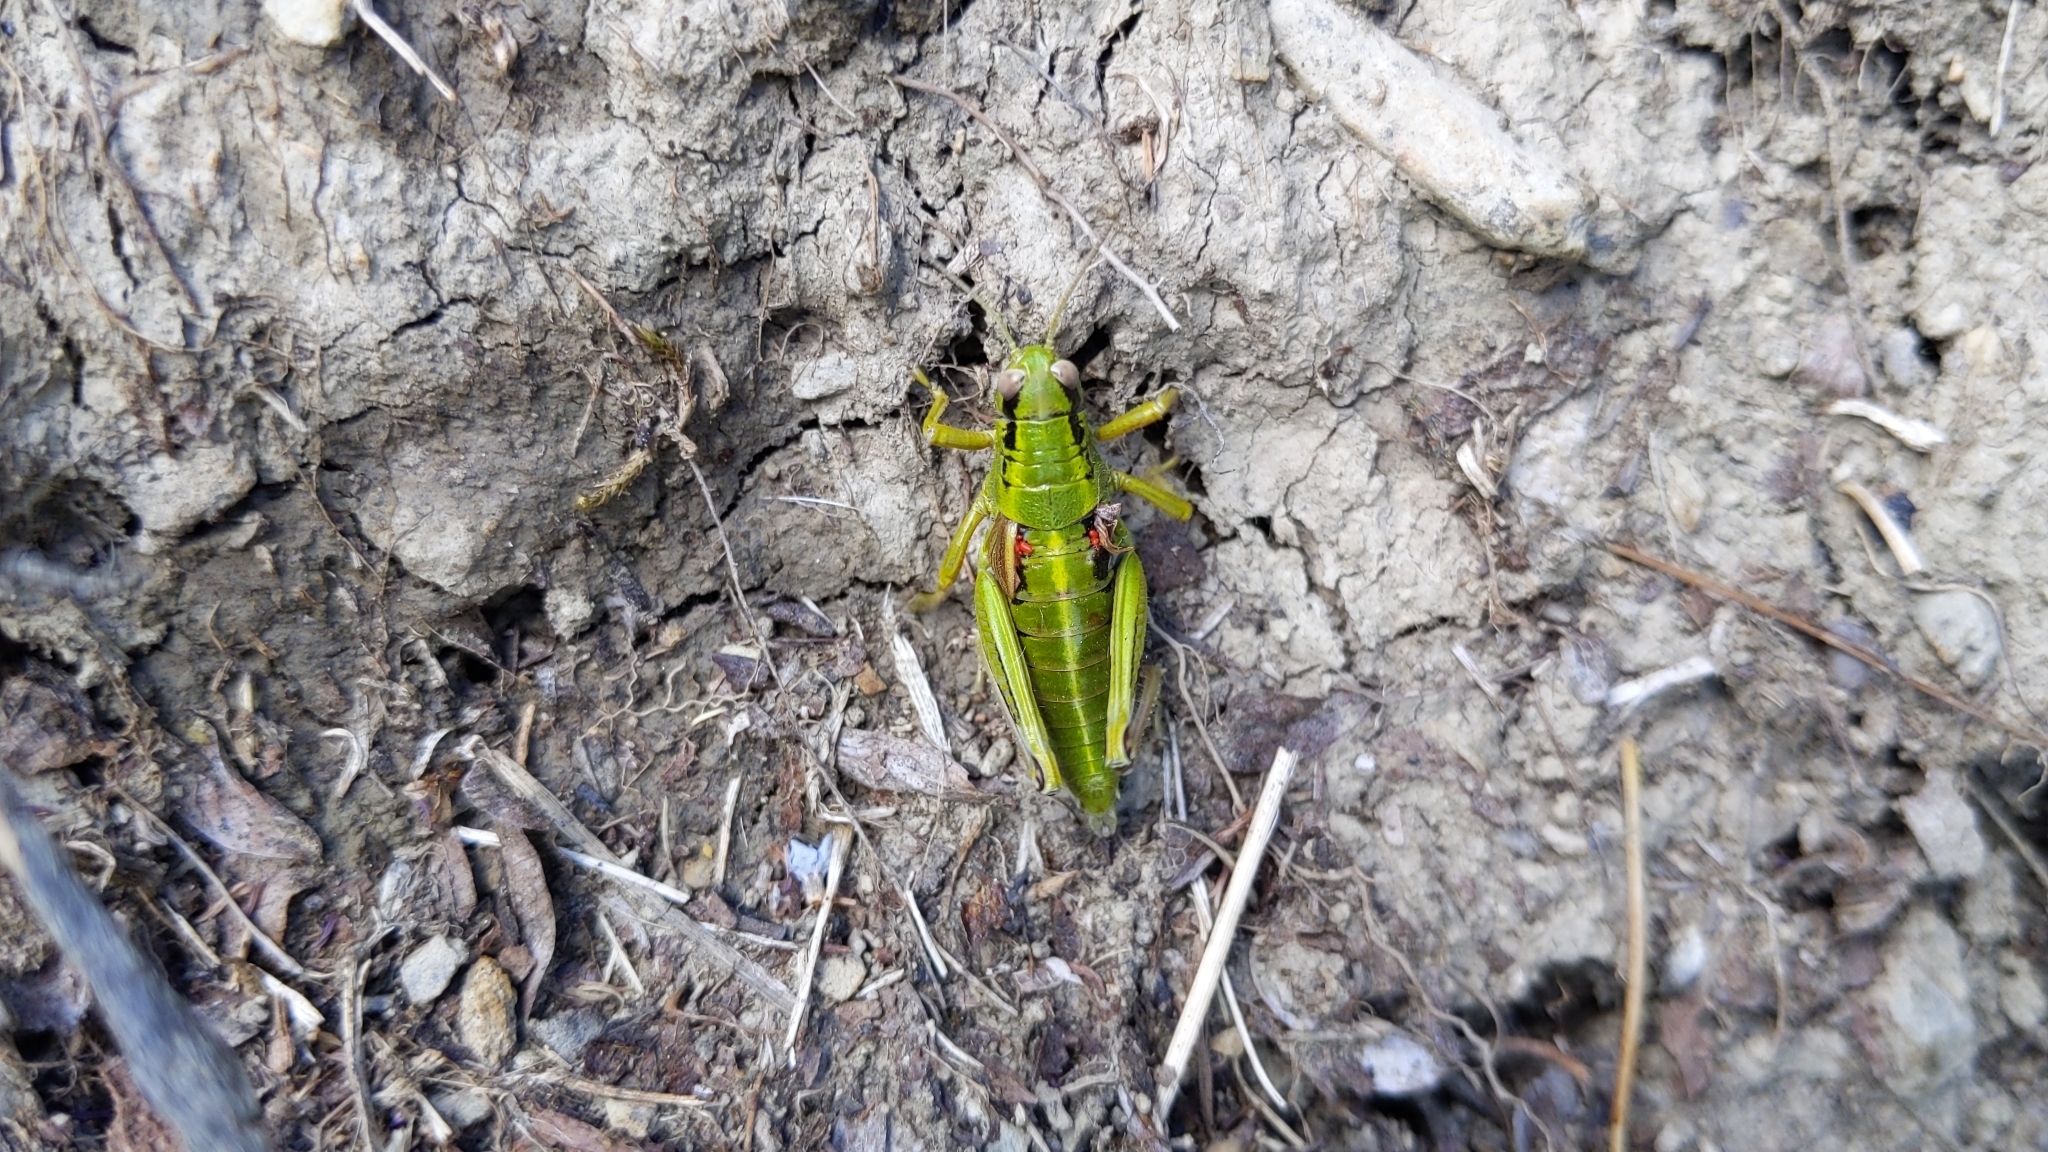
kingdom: Animalia
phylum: Arthropoda
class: Insecta
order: Orthoptera
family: Acrididae
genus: Miramella
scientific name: Miramella alpina
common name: Green mountain grasshopper
